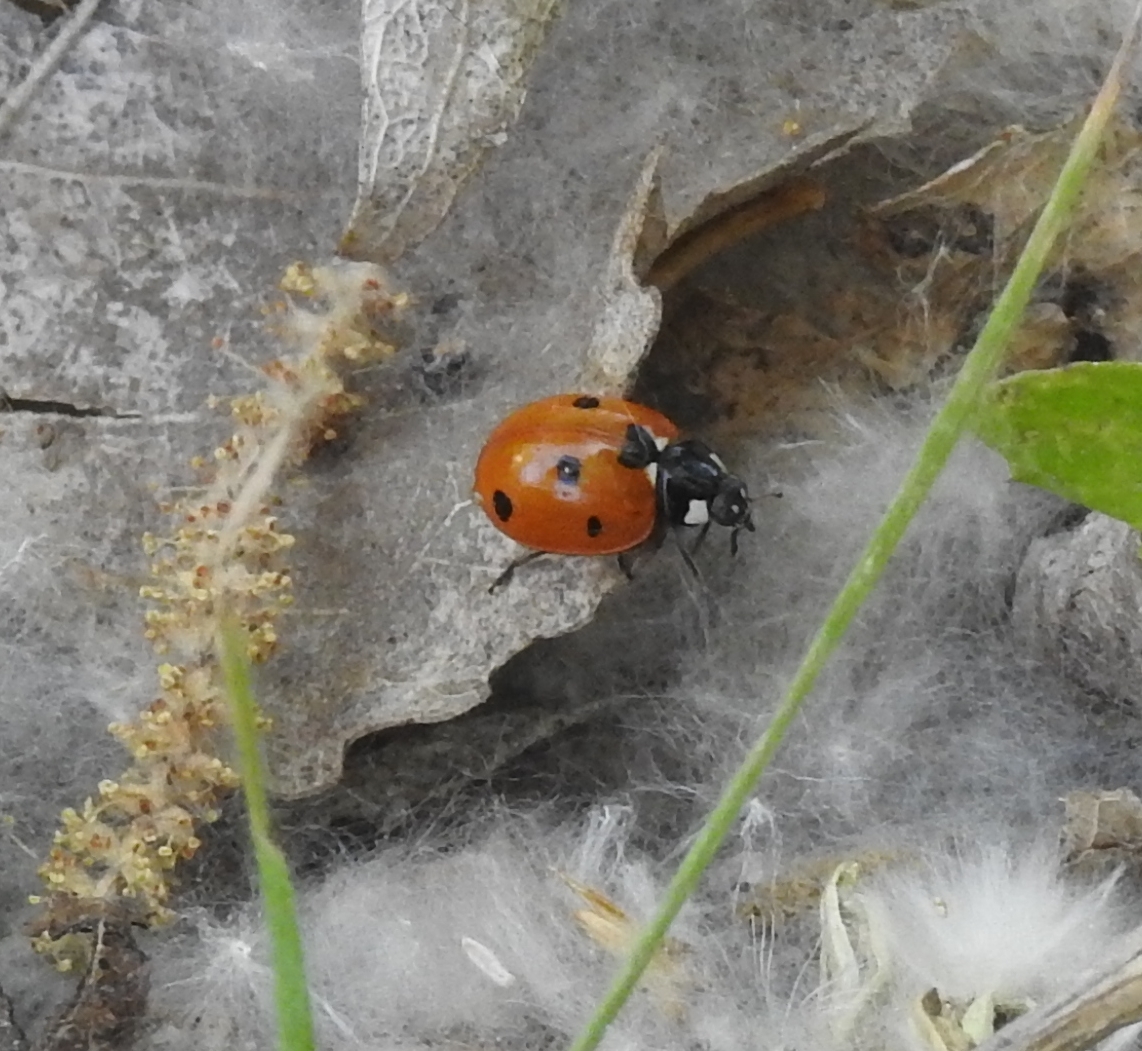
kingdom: Animalia
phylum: Arthropoda
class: Insecta
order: Coleoptera
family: Coccinellidae
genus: Coccinella
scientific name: Coccinella septempunctata
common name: Sevenspotted lady beetle
